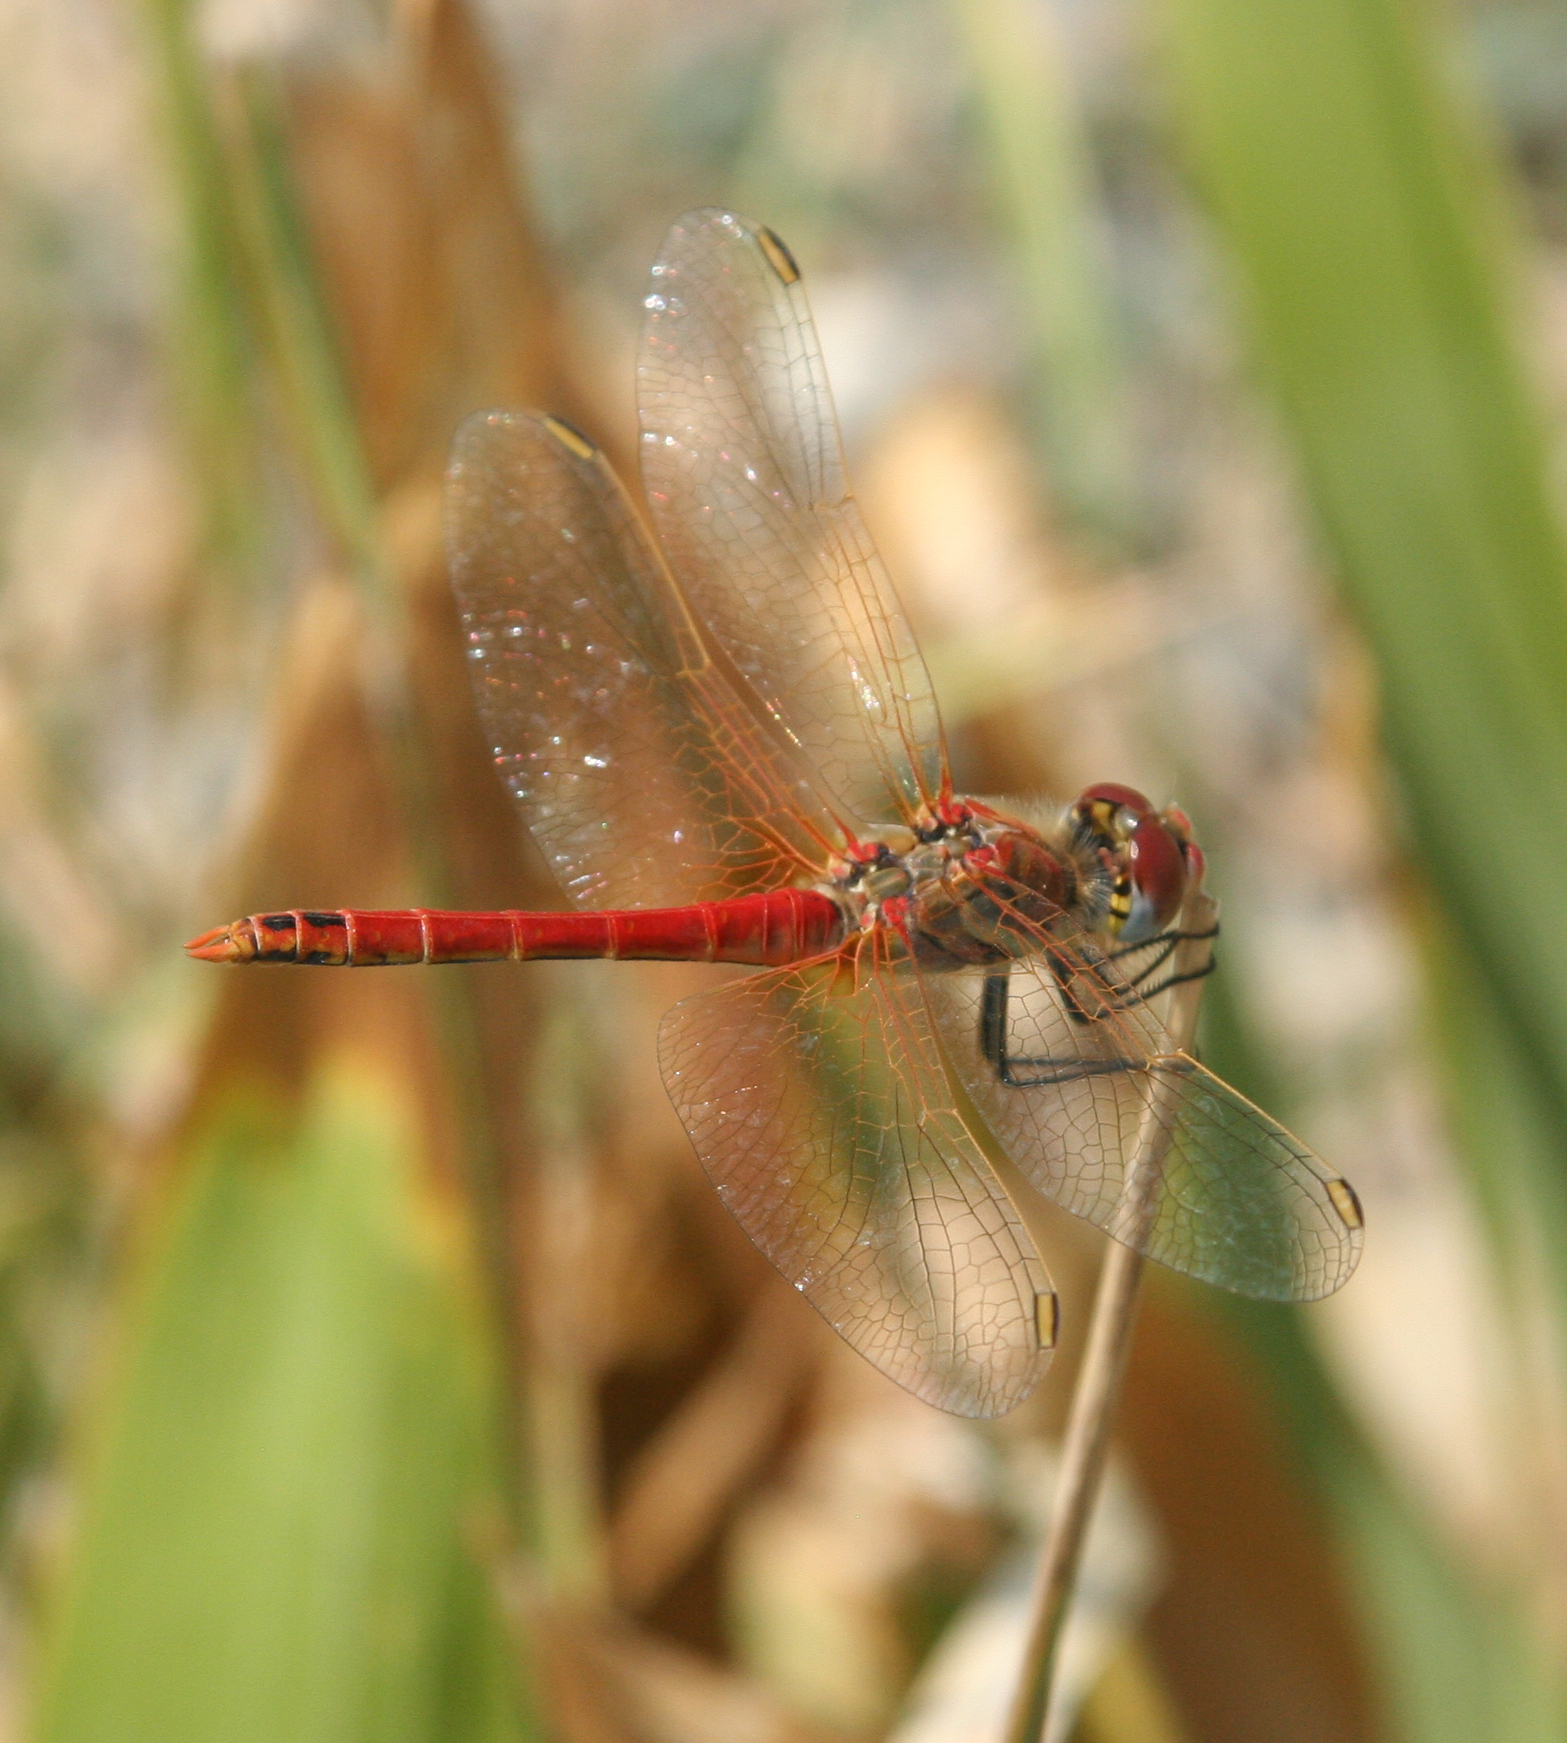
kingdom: Animalia
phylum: Arthropoda
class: Insecta
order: Odonata
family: Libellulidae
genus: Sympetrum
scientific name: Sympetrum fonscolombii
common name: Red-veined darter
